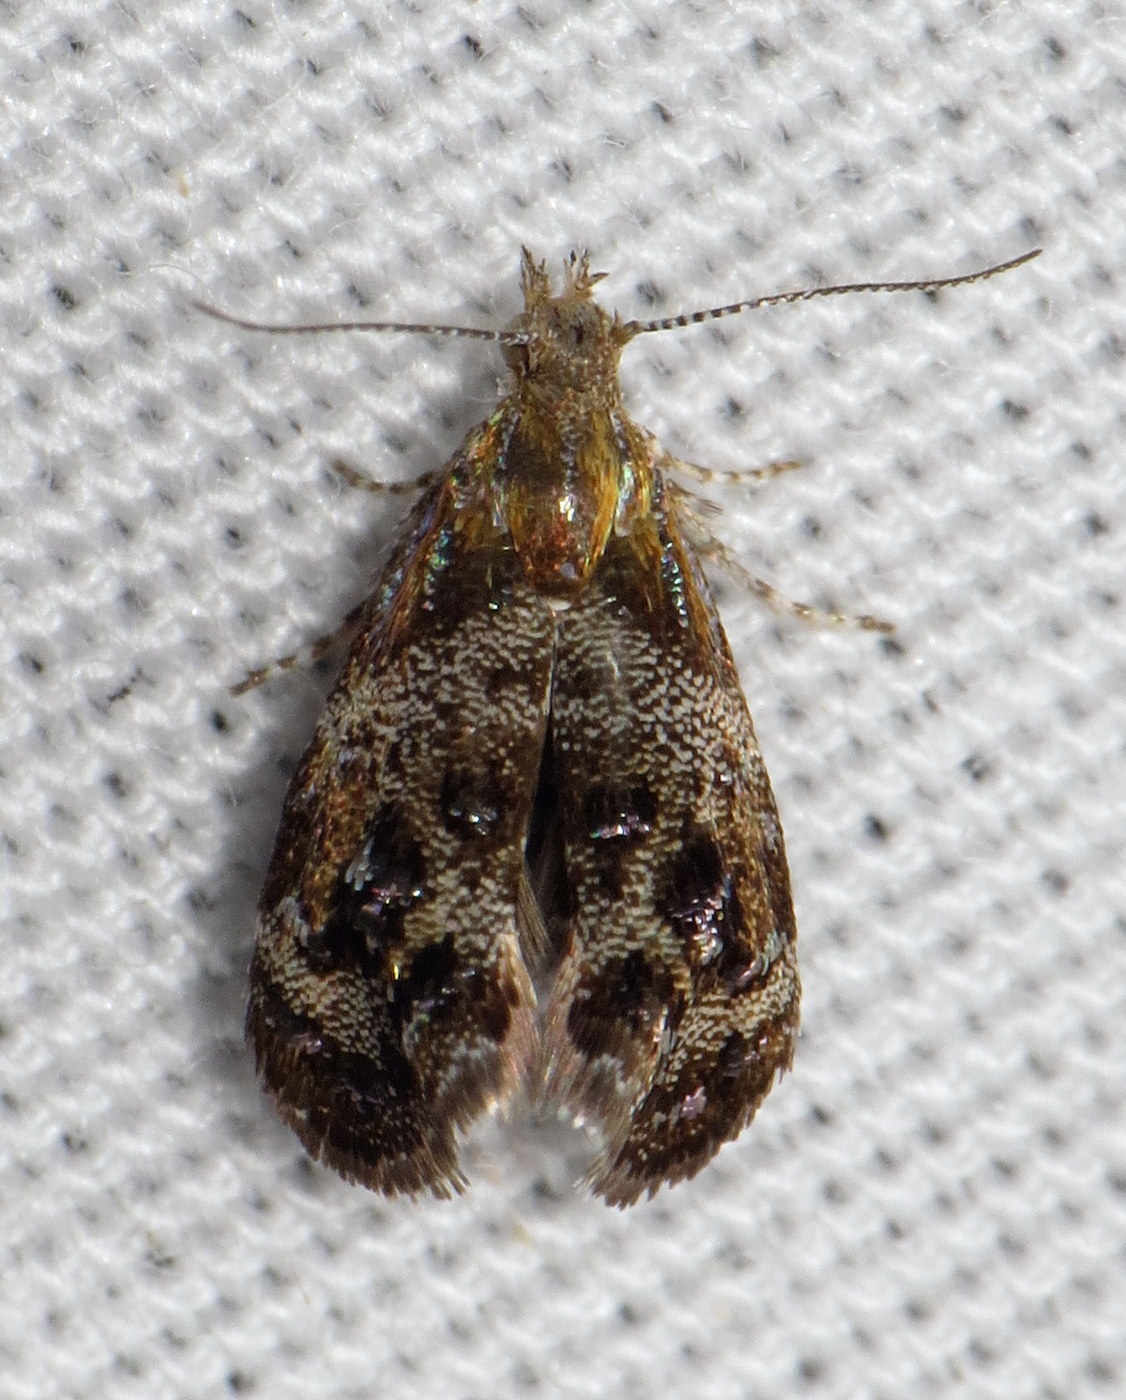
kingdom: Animalia
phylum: Arthropoda
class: Insecta
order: Lepidoptera
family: Choreutidae
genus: Tebenna
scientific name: Tebenna gnaphaliella
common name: Everlasting tebenna moth
